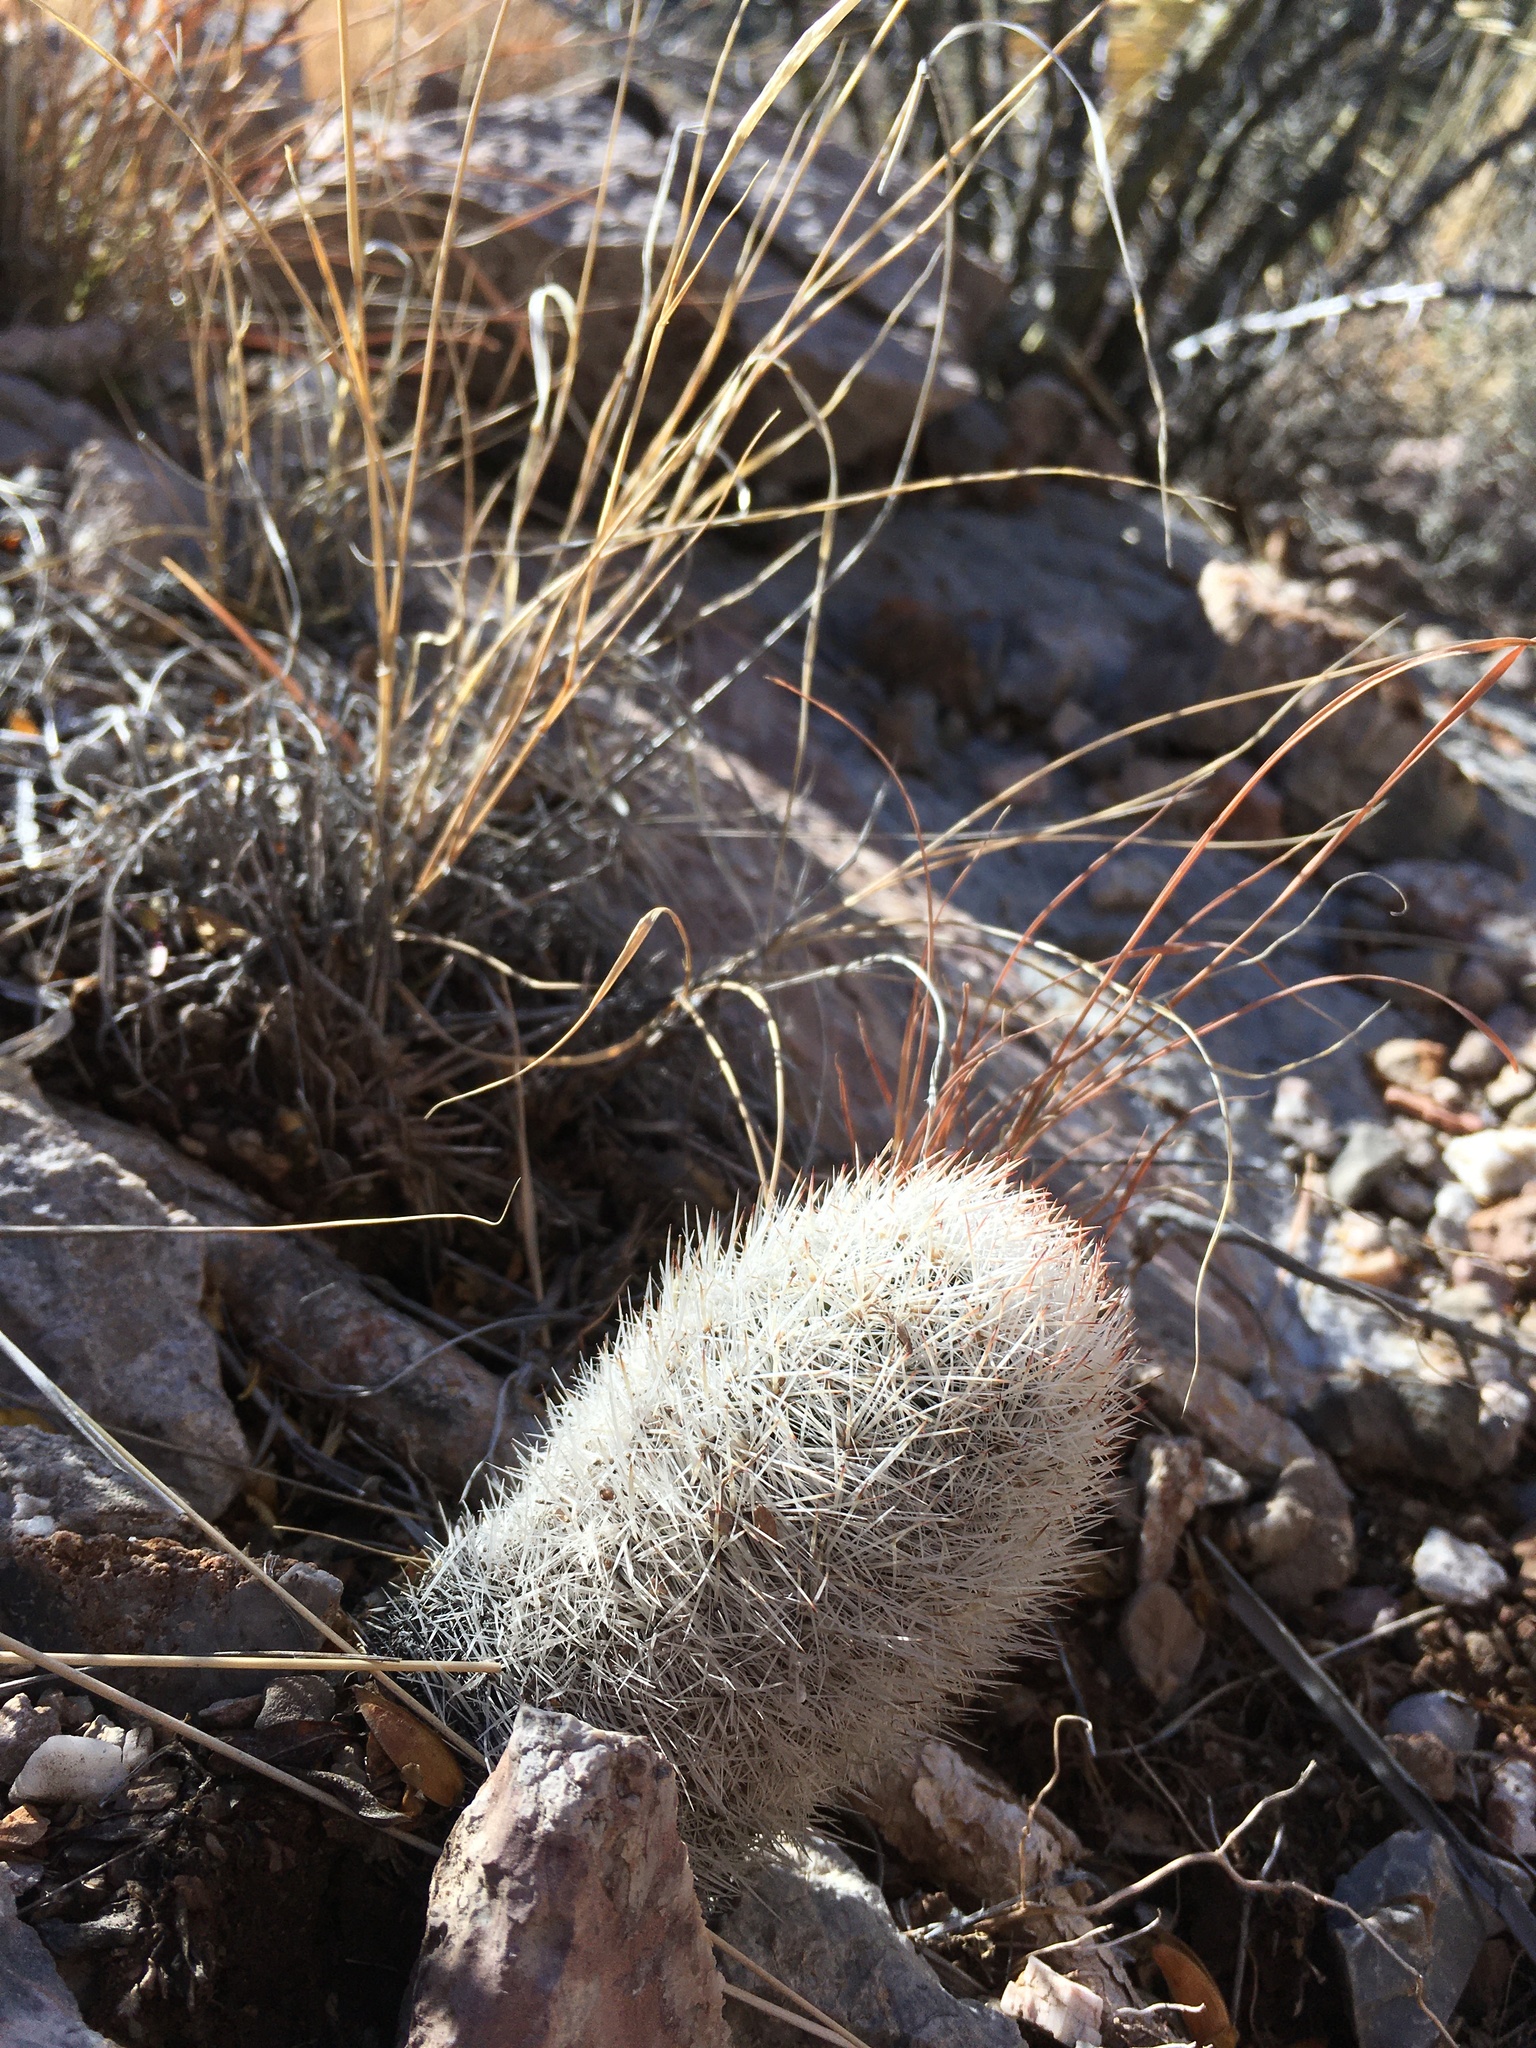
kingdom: Plantae
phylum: Tracheophyta
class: Magnoliopsida
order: Caryophyllales
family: Cactaceae
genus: Pelecyphora
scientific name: Pelecyphora sneedii
